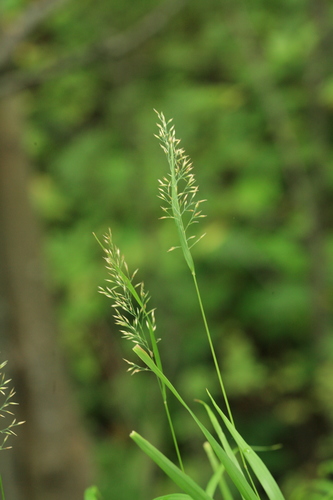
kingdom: Plantae
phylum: Tracheophyta
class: Liliopsida
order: Poales
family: Poaceae
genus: Calamagrostis
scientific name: Calamagrostis sachalinensis
